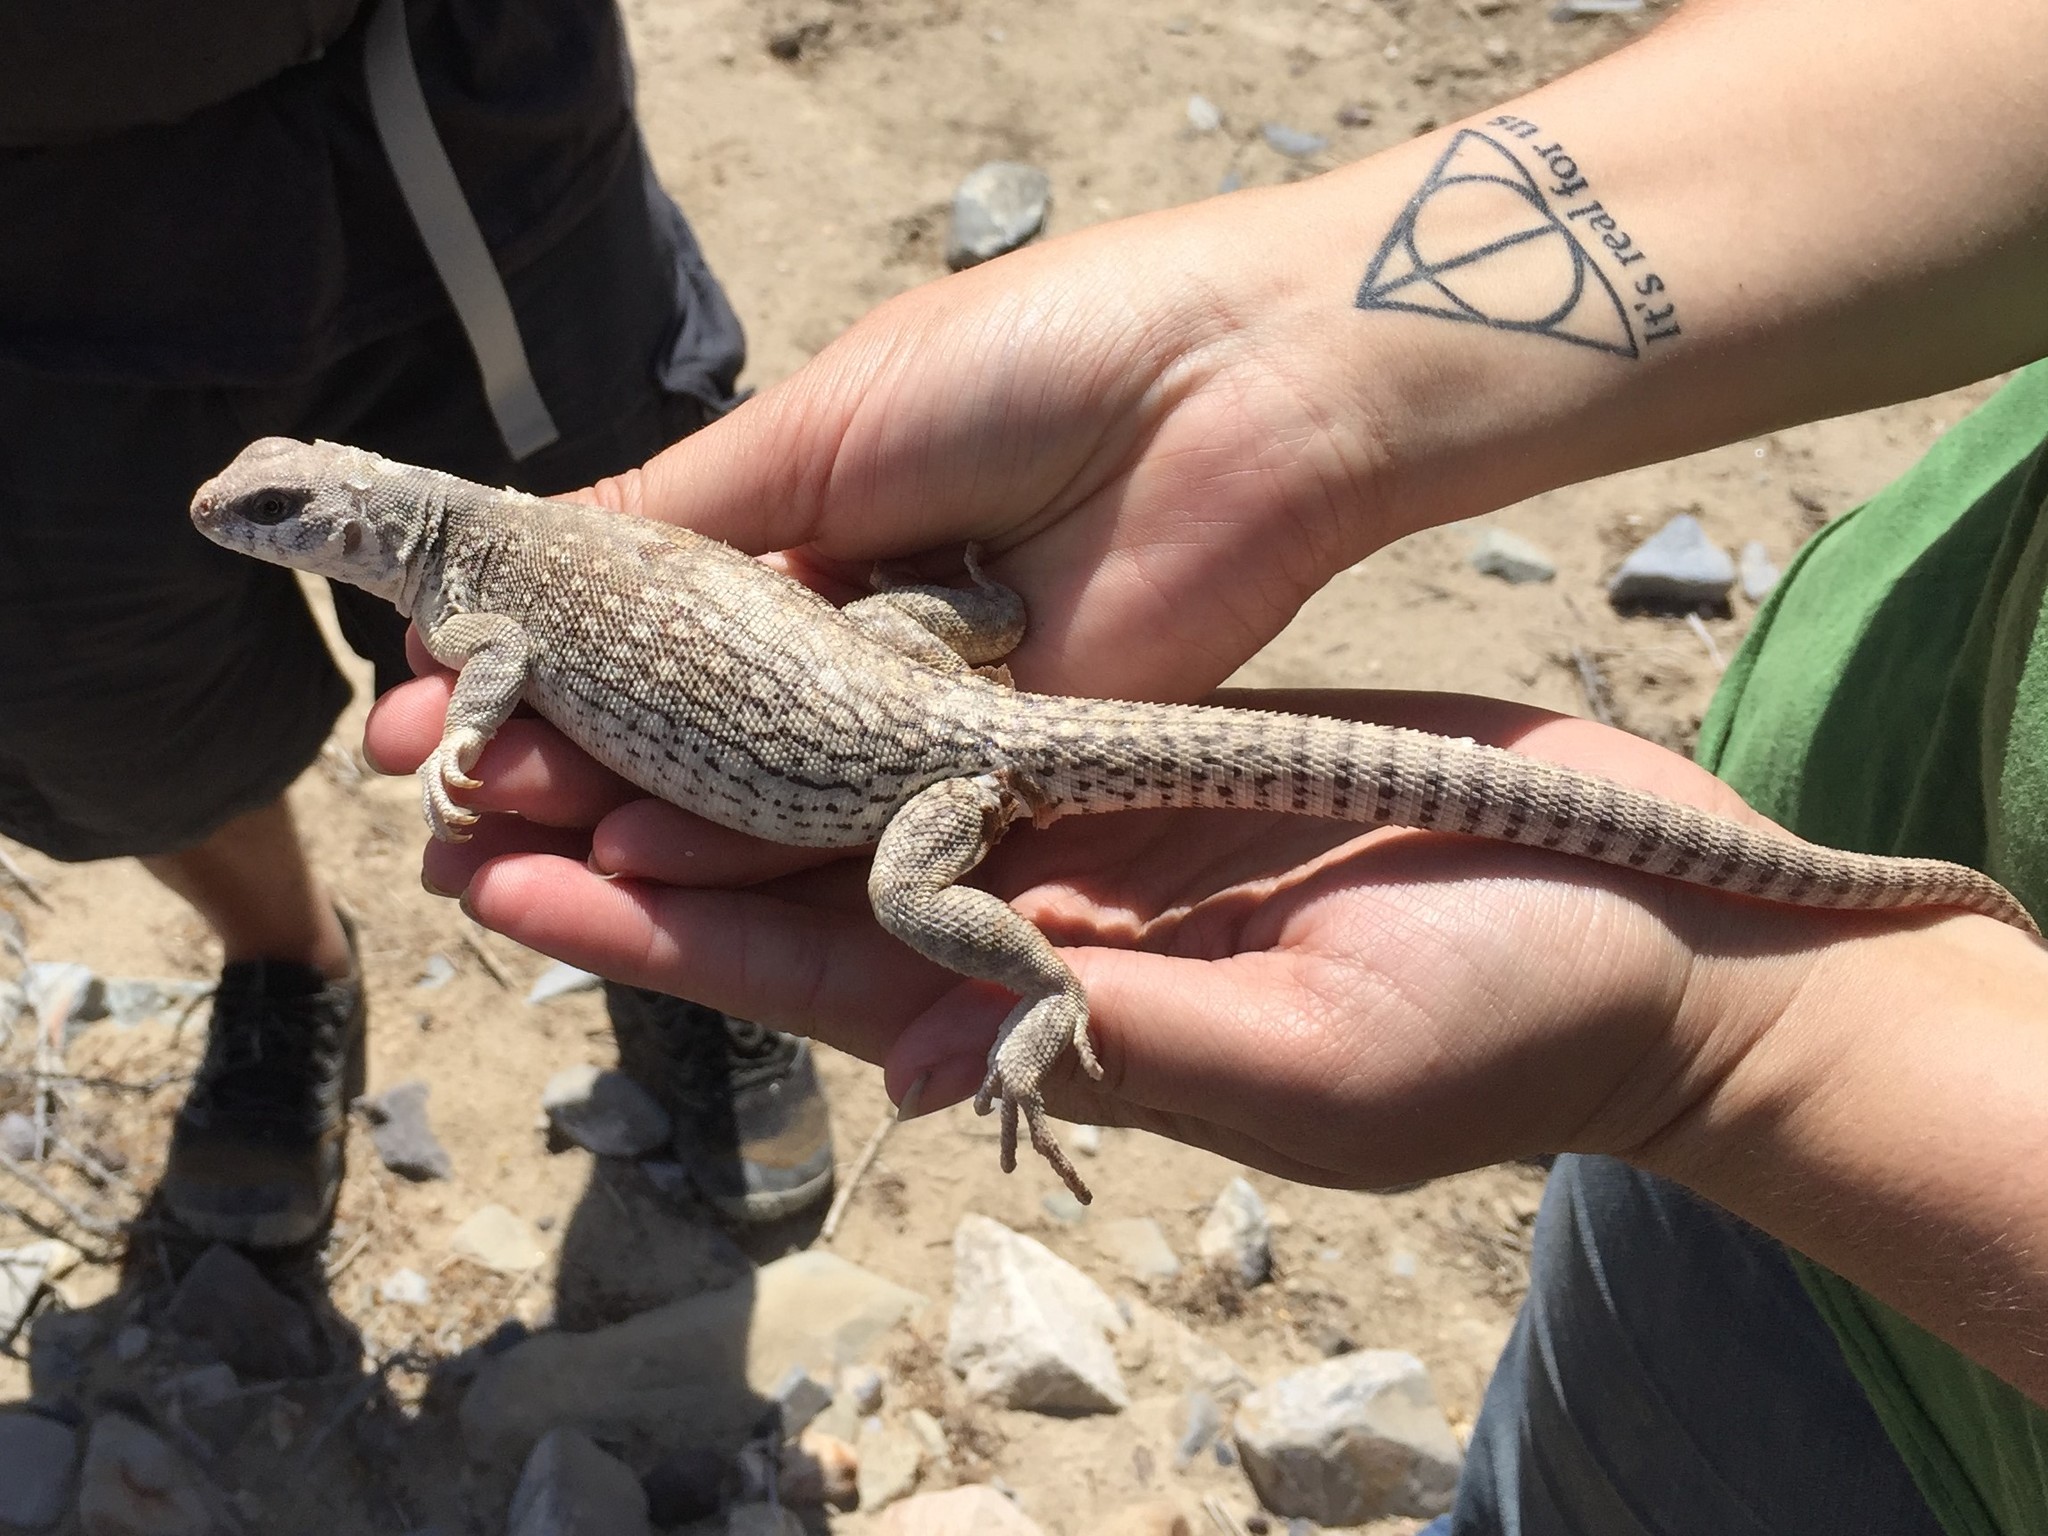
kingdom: Animalia
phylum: Chordata
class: Squamata
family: Iguanidae
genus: Dipsosaurus
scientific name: Dipsosaurus dorsalis
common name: Desert iguana
